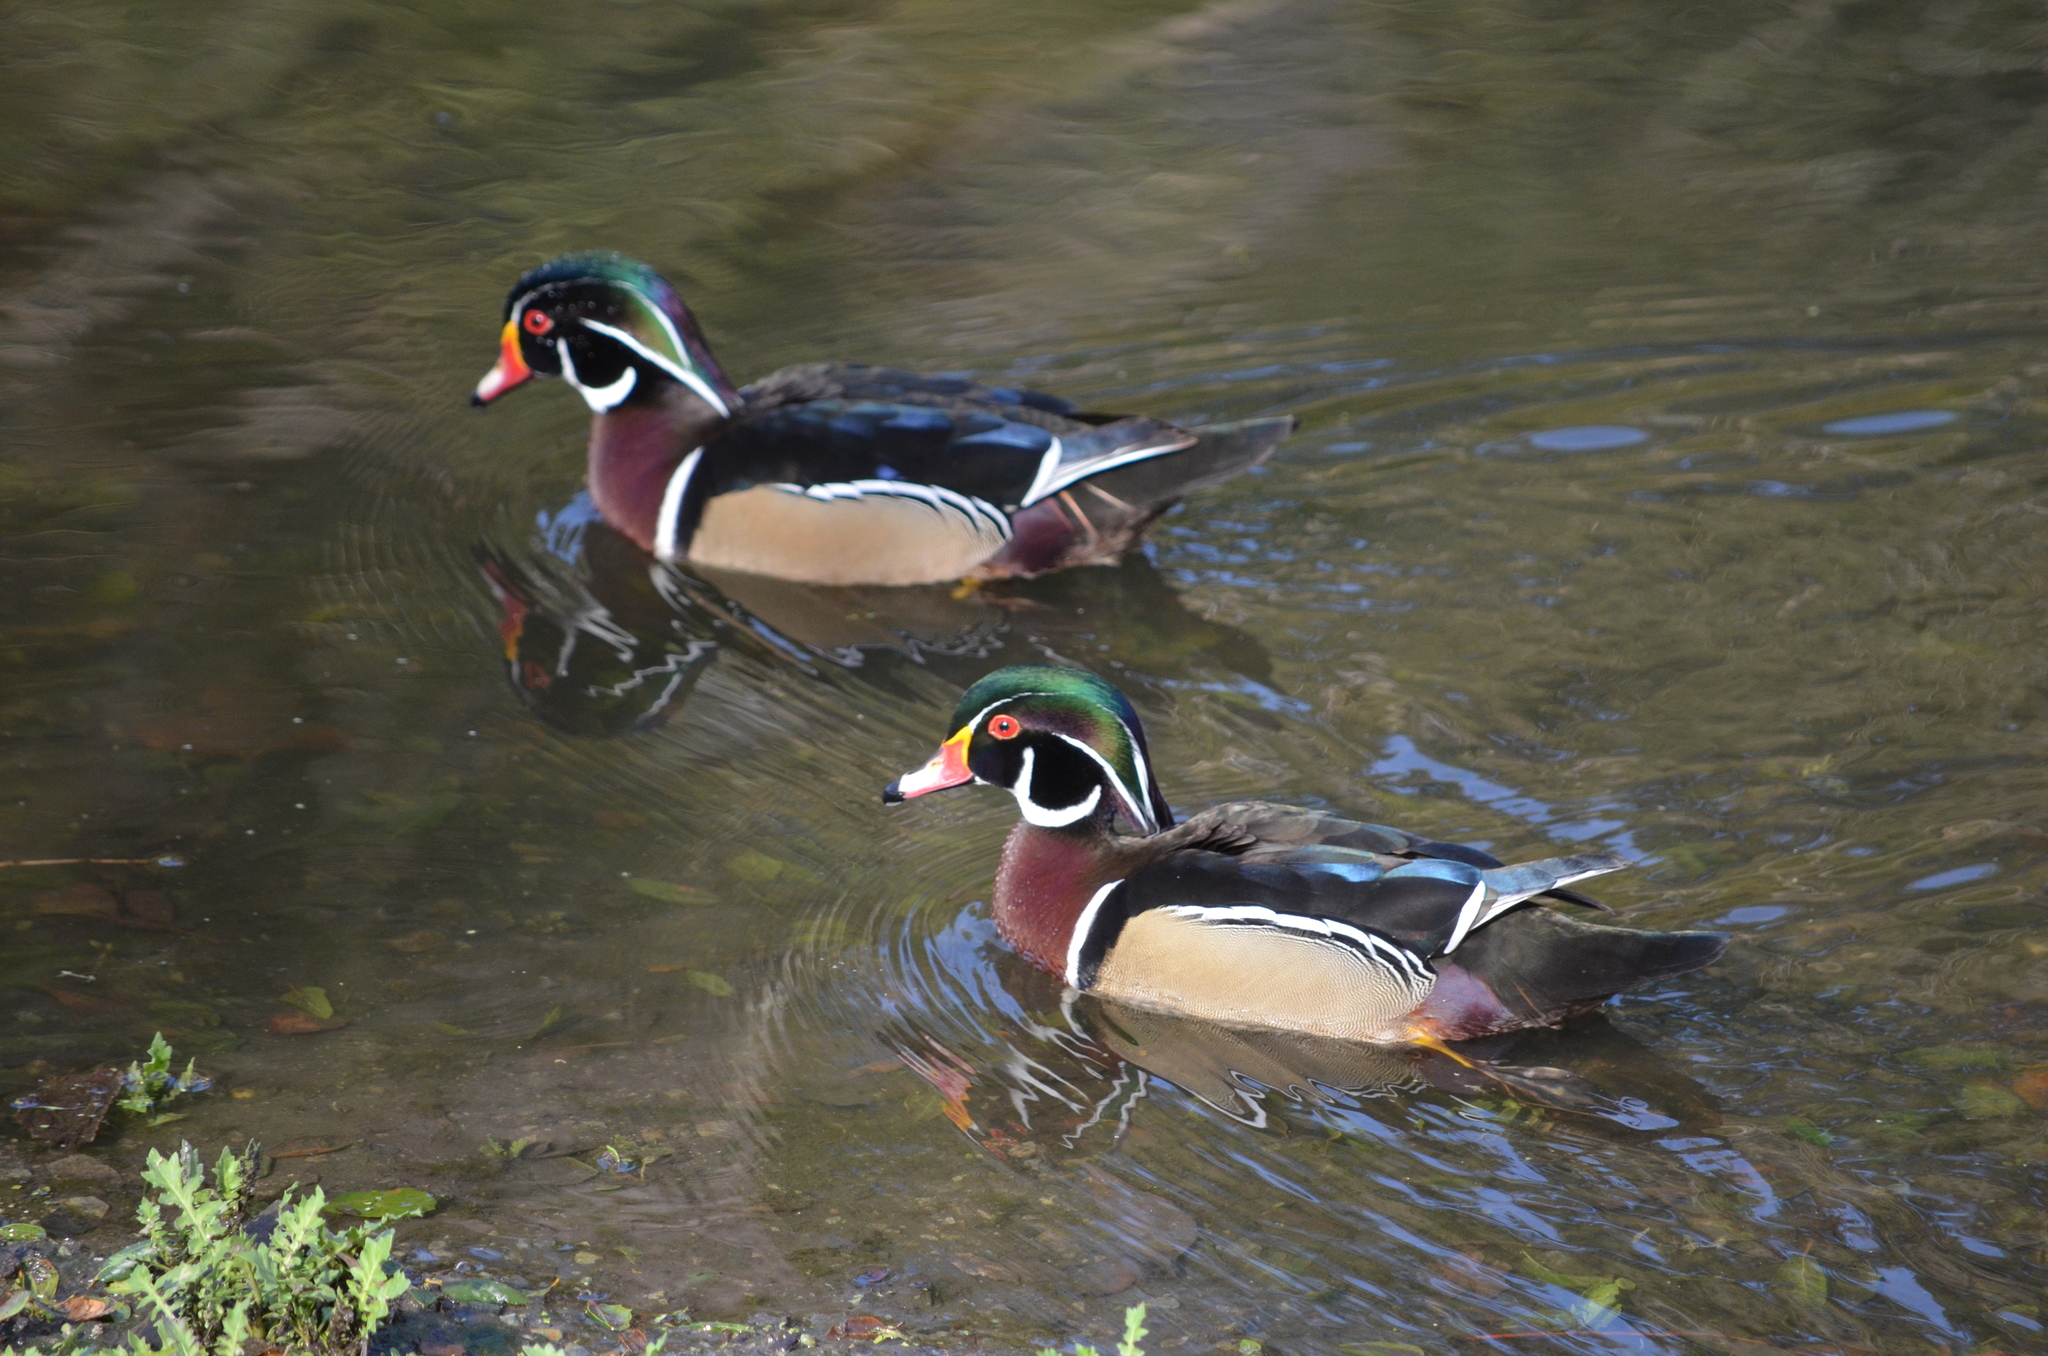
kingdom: Animalia
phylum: Chordata
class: Aves
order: Anseriformes
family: Anatidae
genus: Aix
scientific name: Aix sponsa
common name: Wood duck
